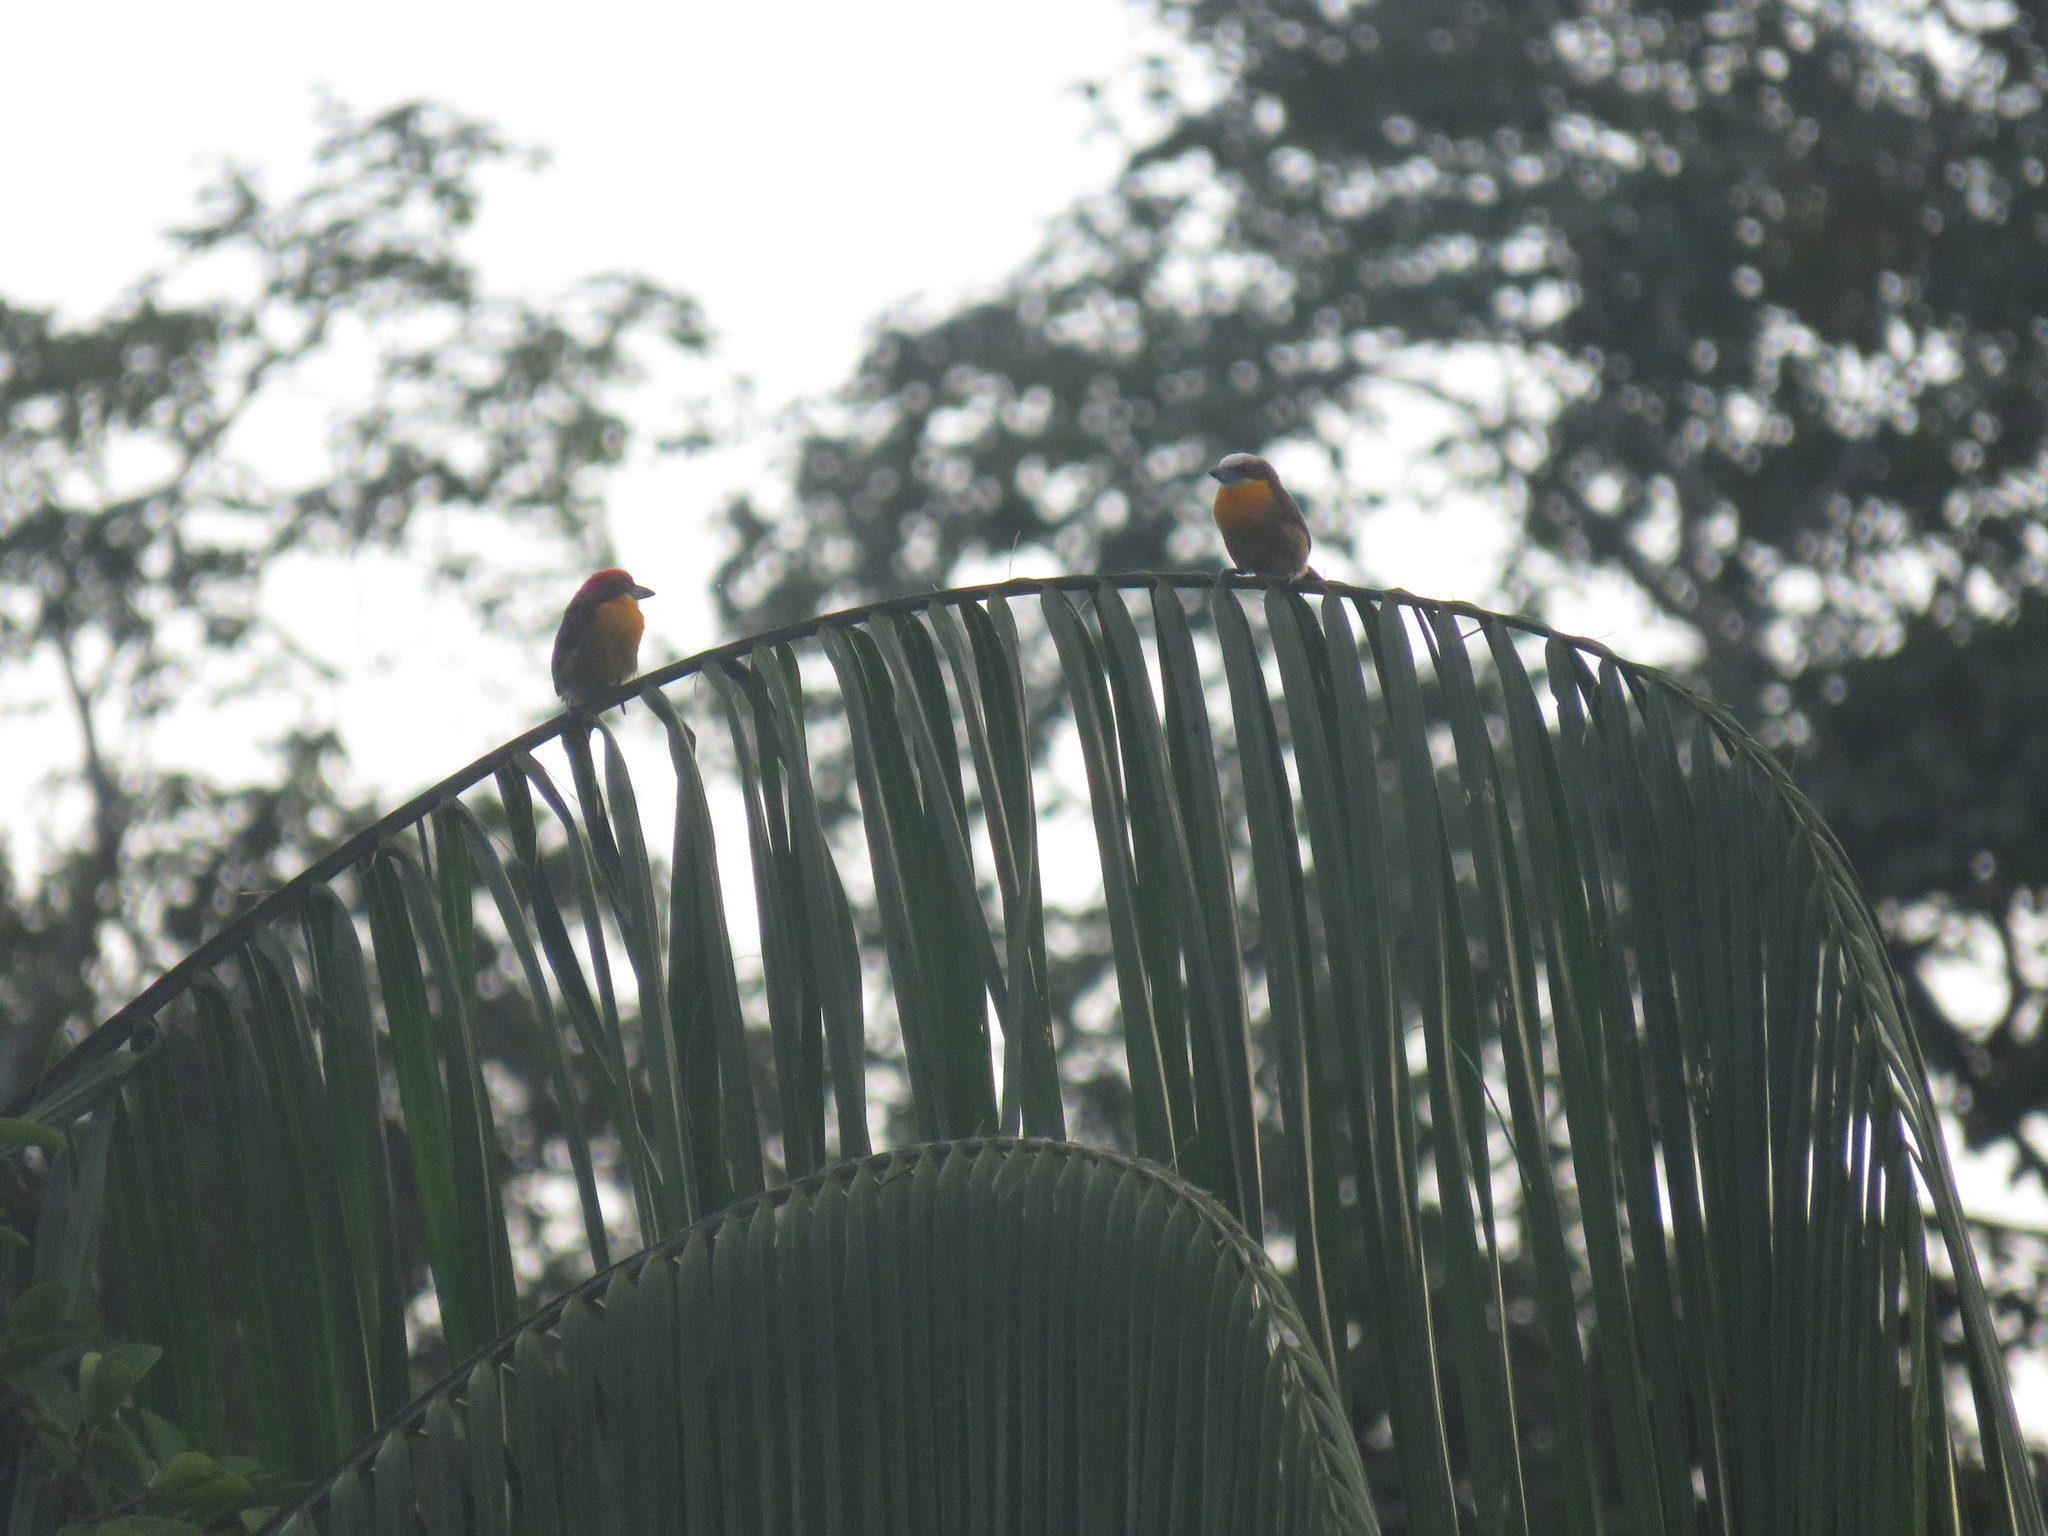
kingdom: Animalia
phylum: Chordata
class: Aves
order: Piciformes
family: Capitonidae
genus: Capito
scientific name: Capito aurovirens
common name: Scarlet-crowned barbet
